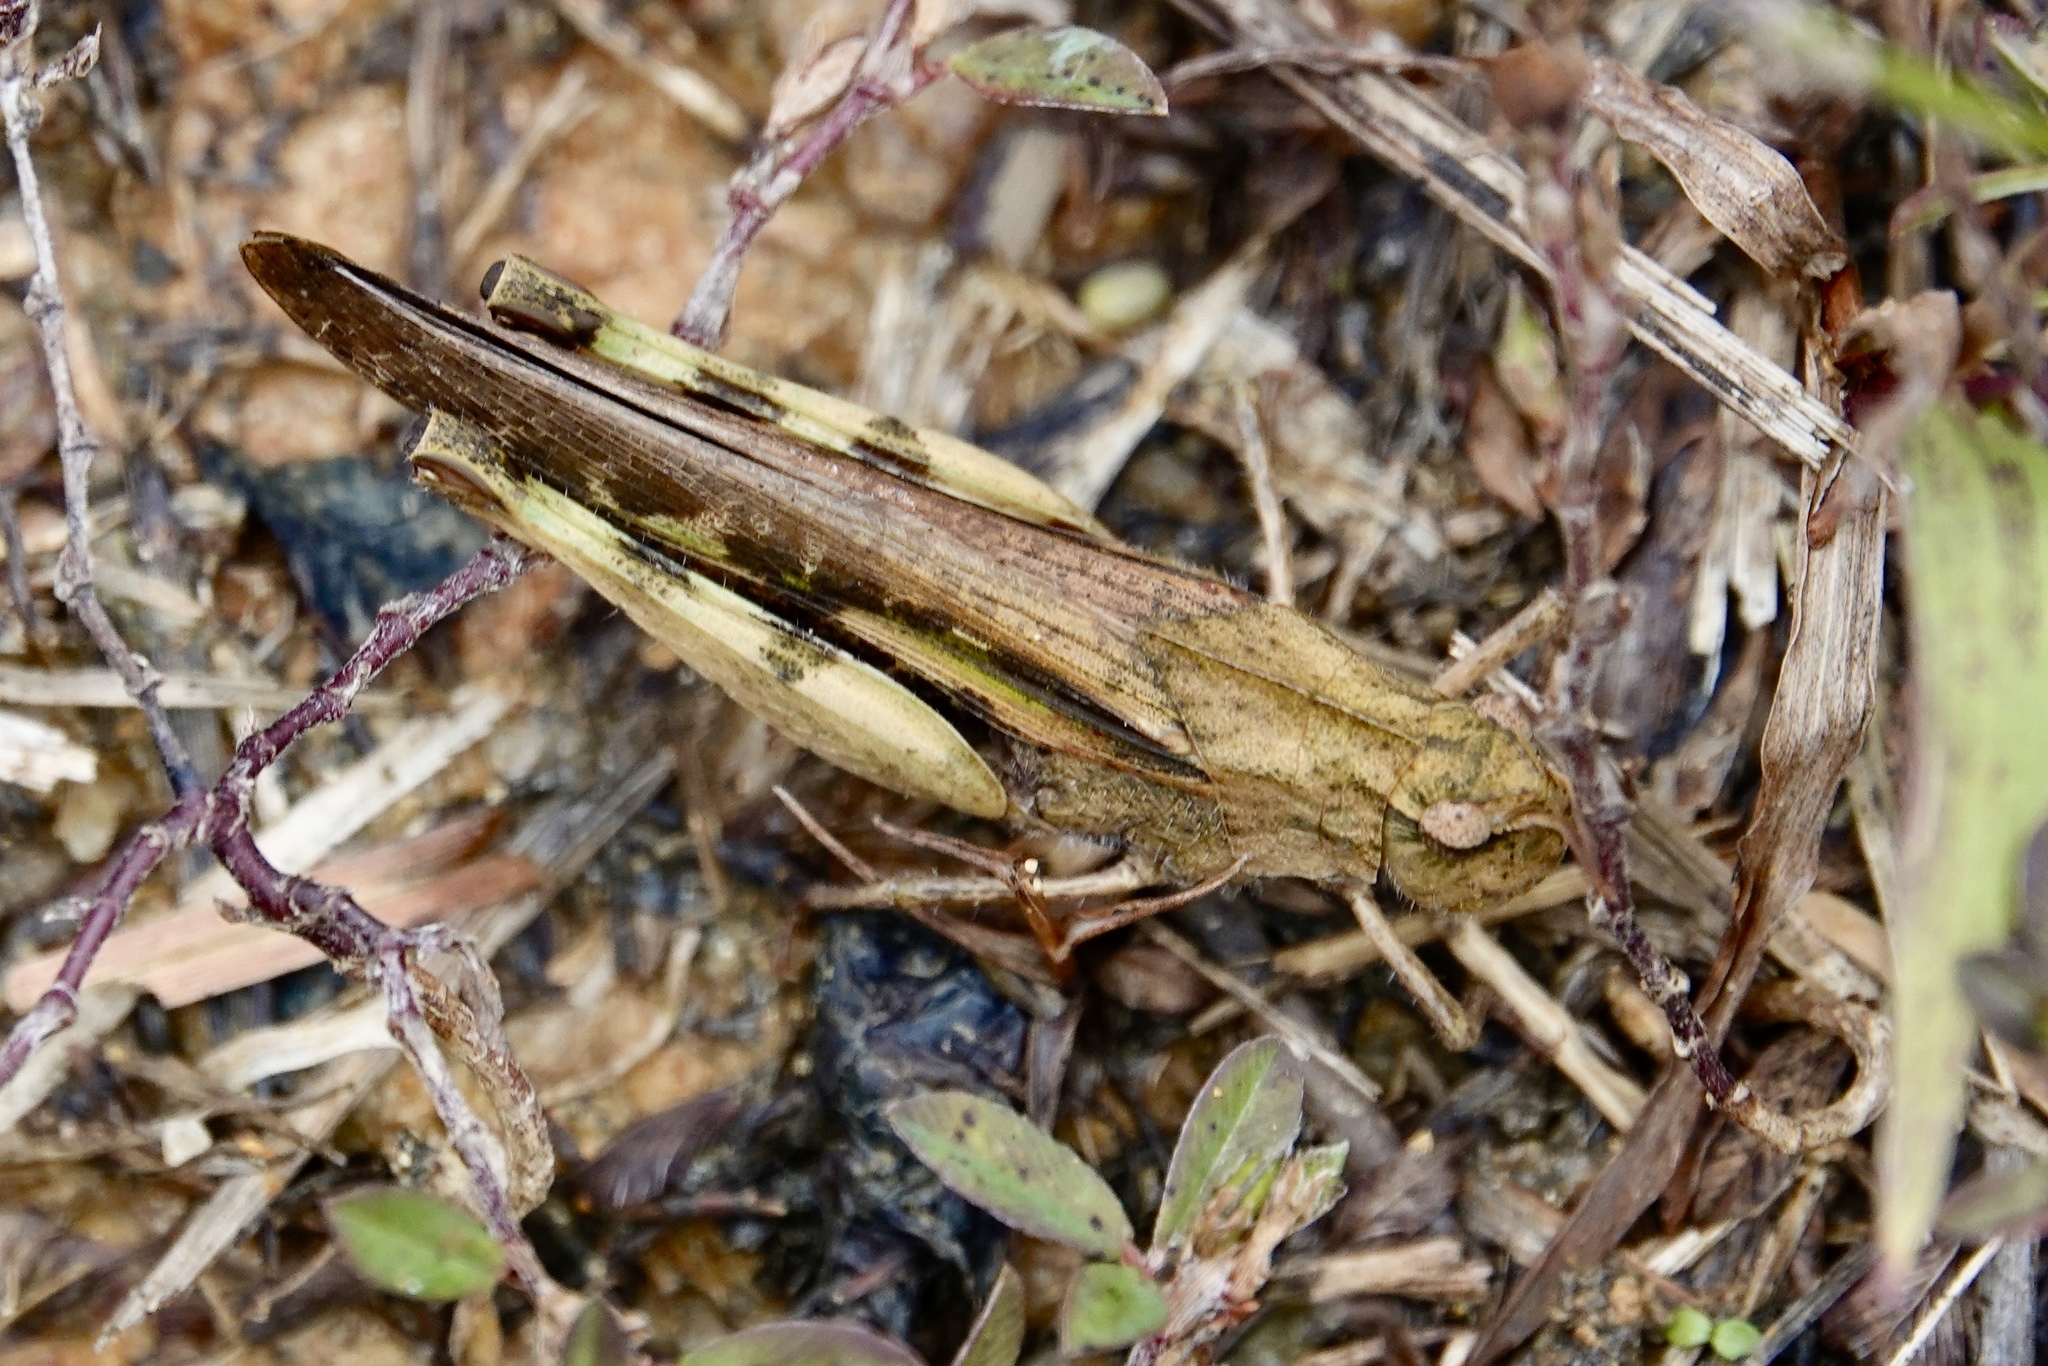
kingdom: Animalia
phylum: Arthropoda
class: Insecta
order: Orthoptera
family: Acrididae
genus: Chortophaga
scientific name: Chortophaga viridifasciata
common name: Green-striped grasshopper
